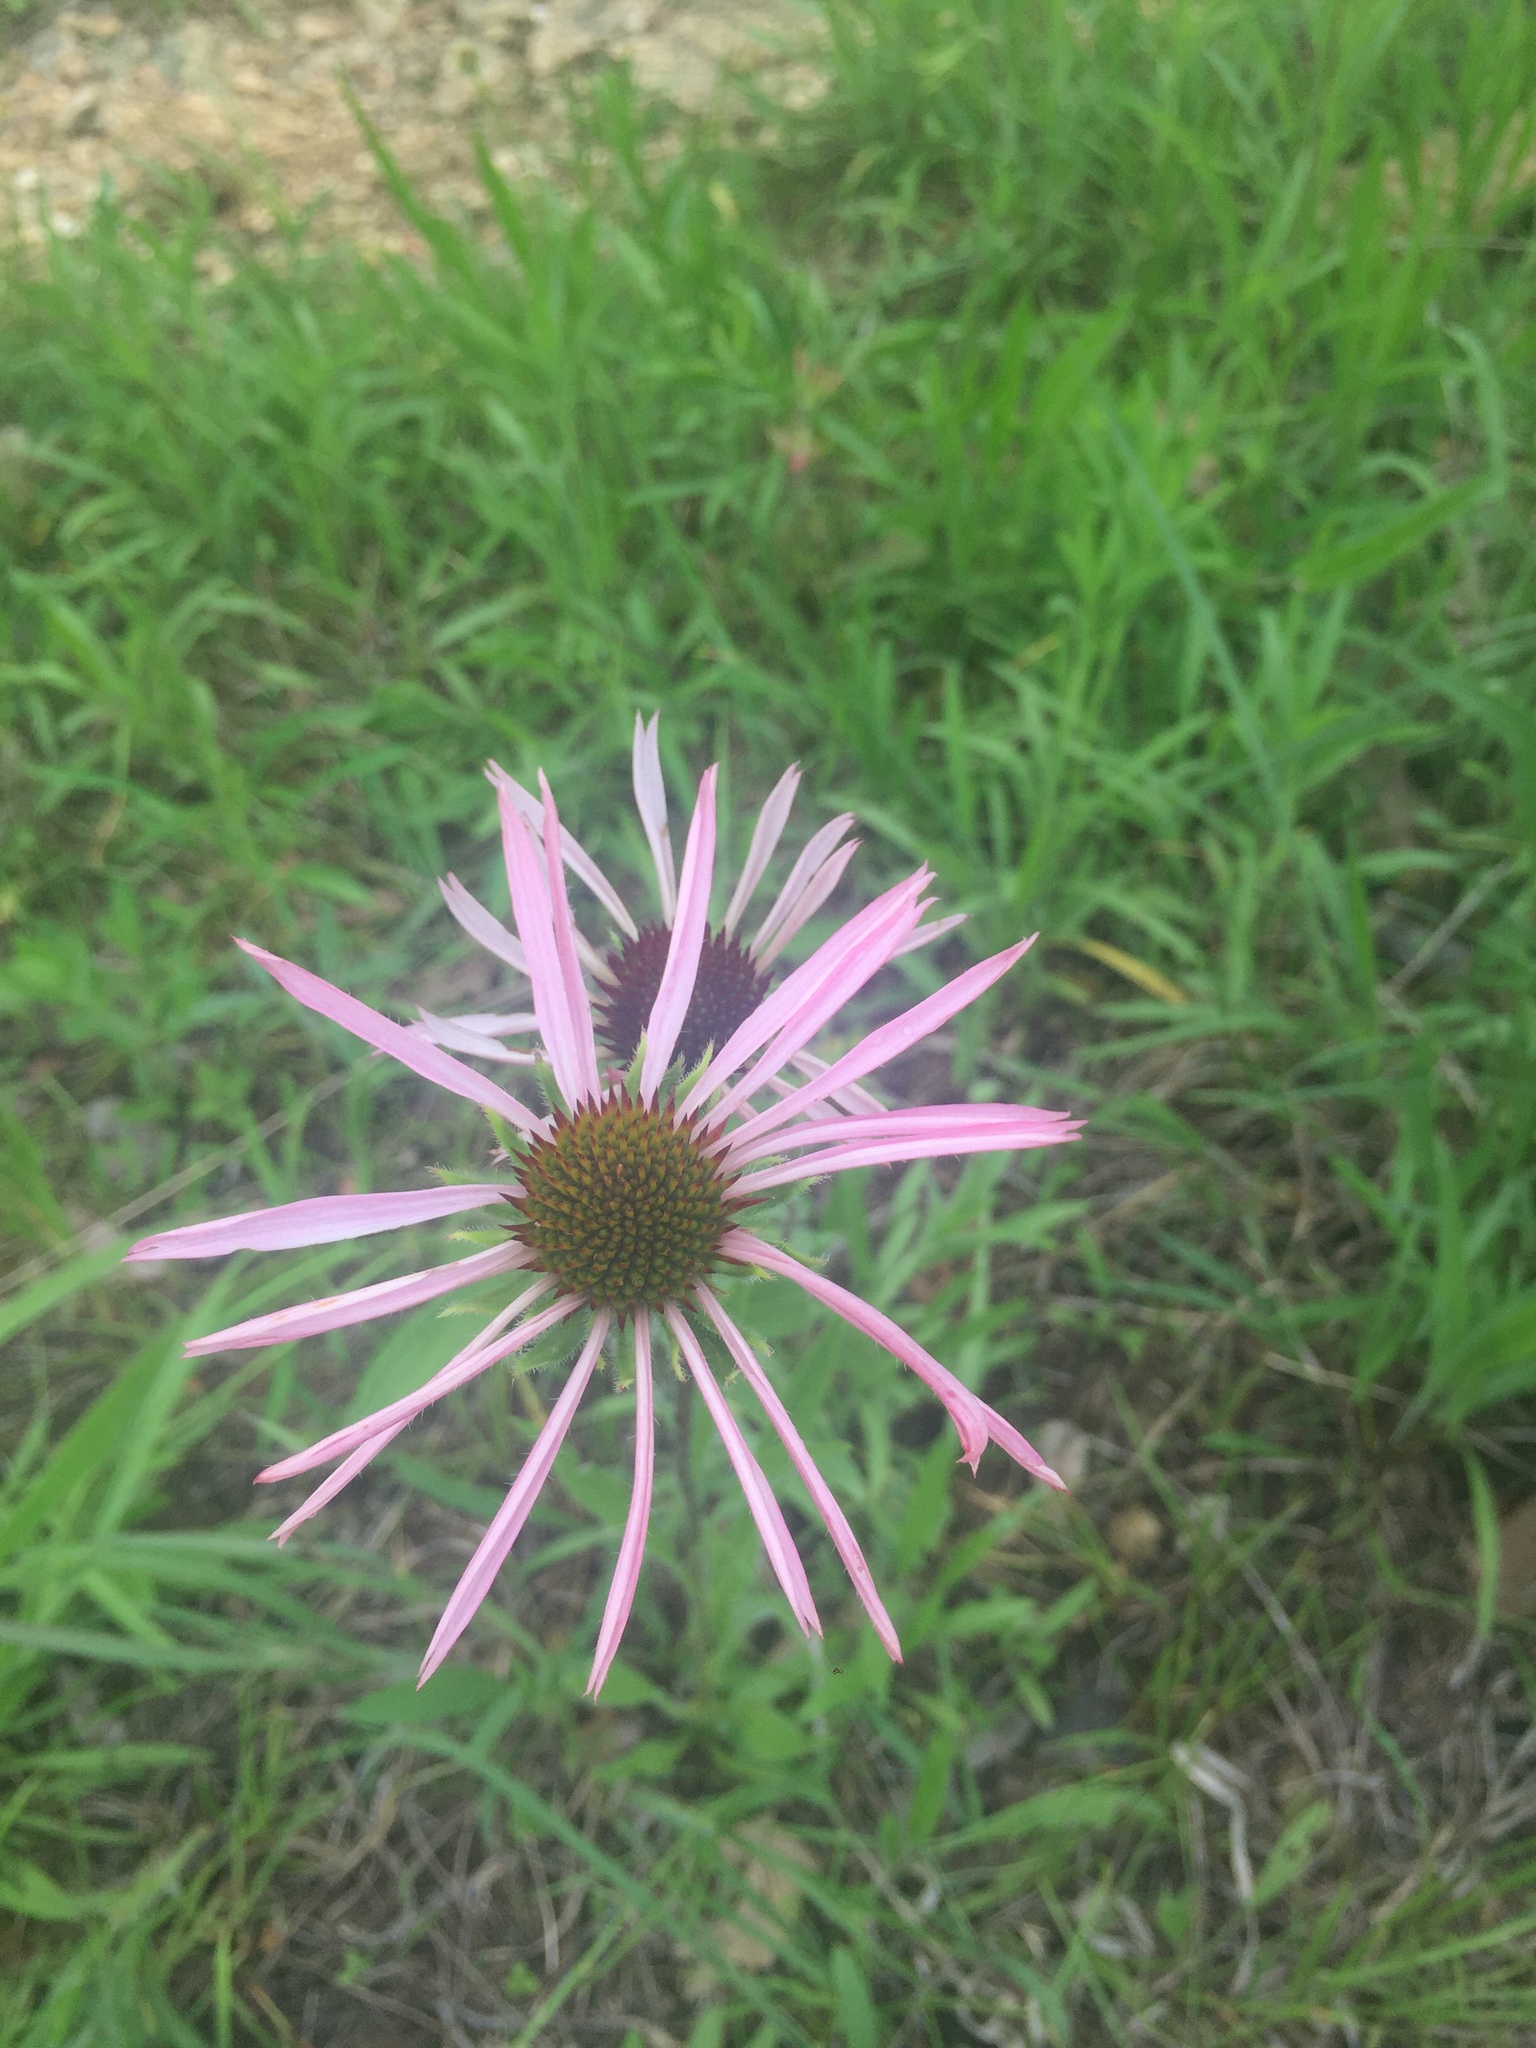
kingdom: Plantae
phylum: Tracheophyta
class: Magnoliopsida
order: Asterales
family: Asteraceae
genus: Echinacea
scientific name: Echinacea pallida
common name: Pale echinacea
